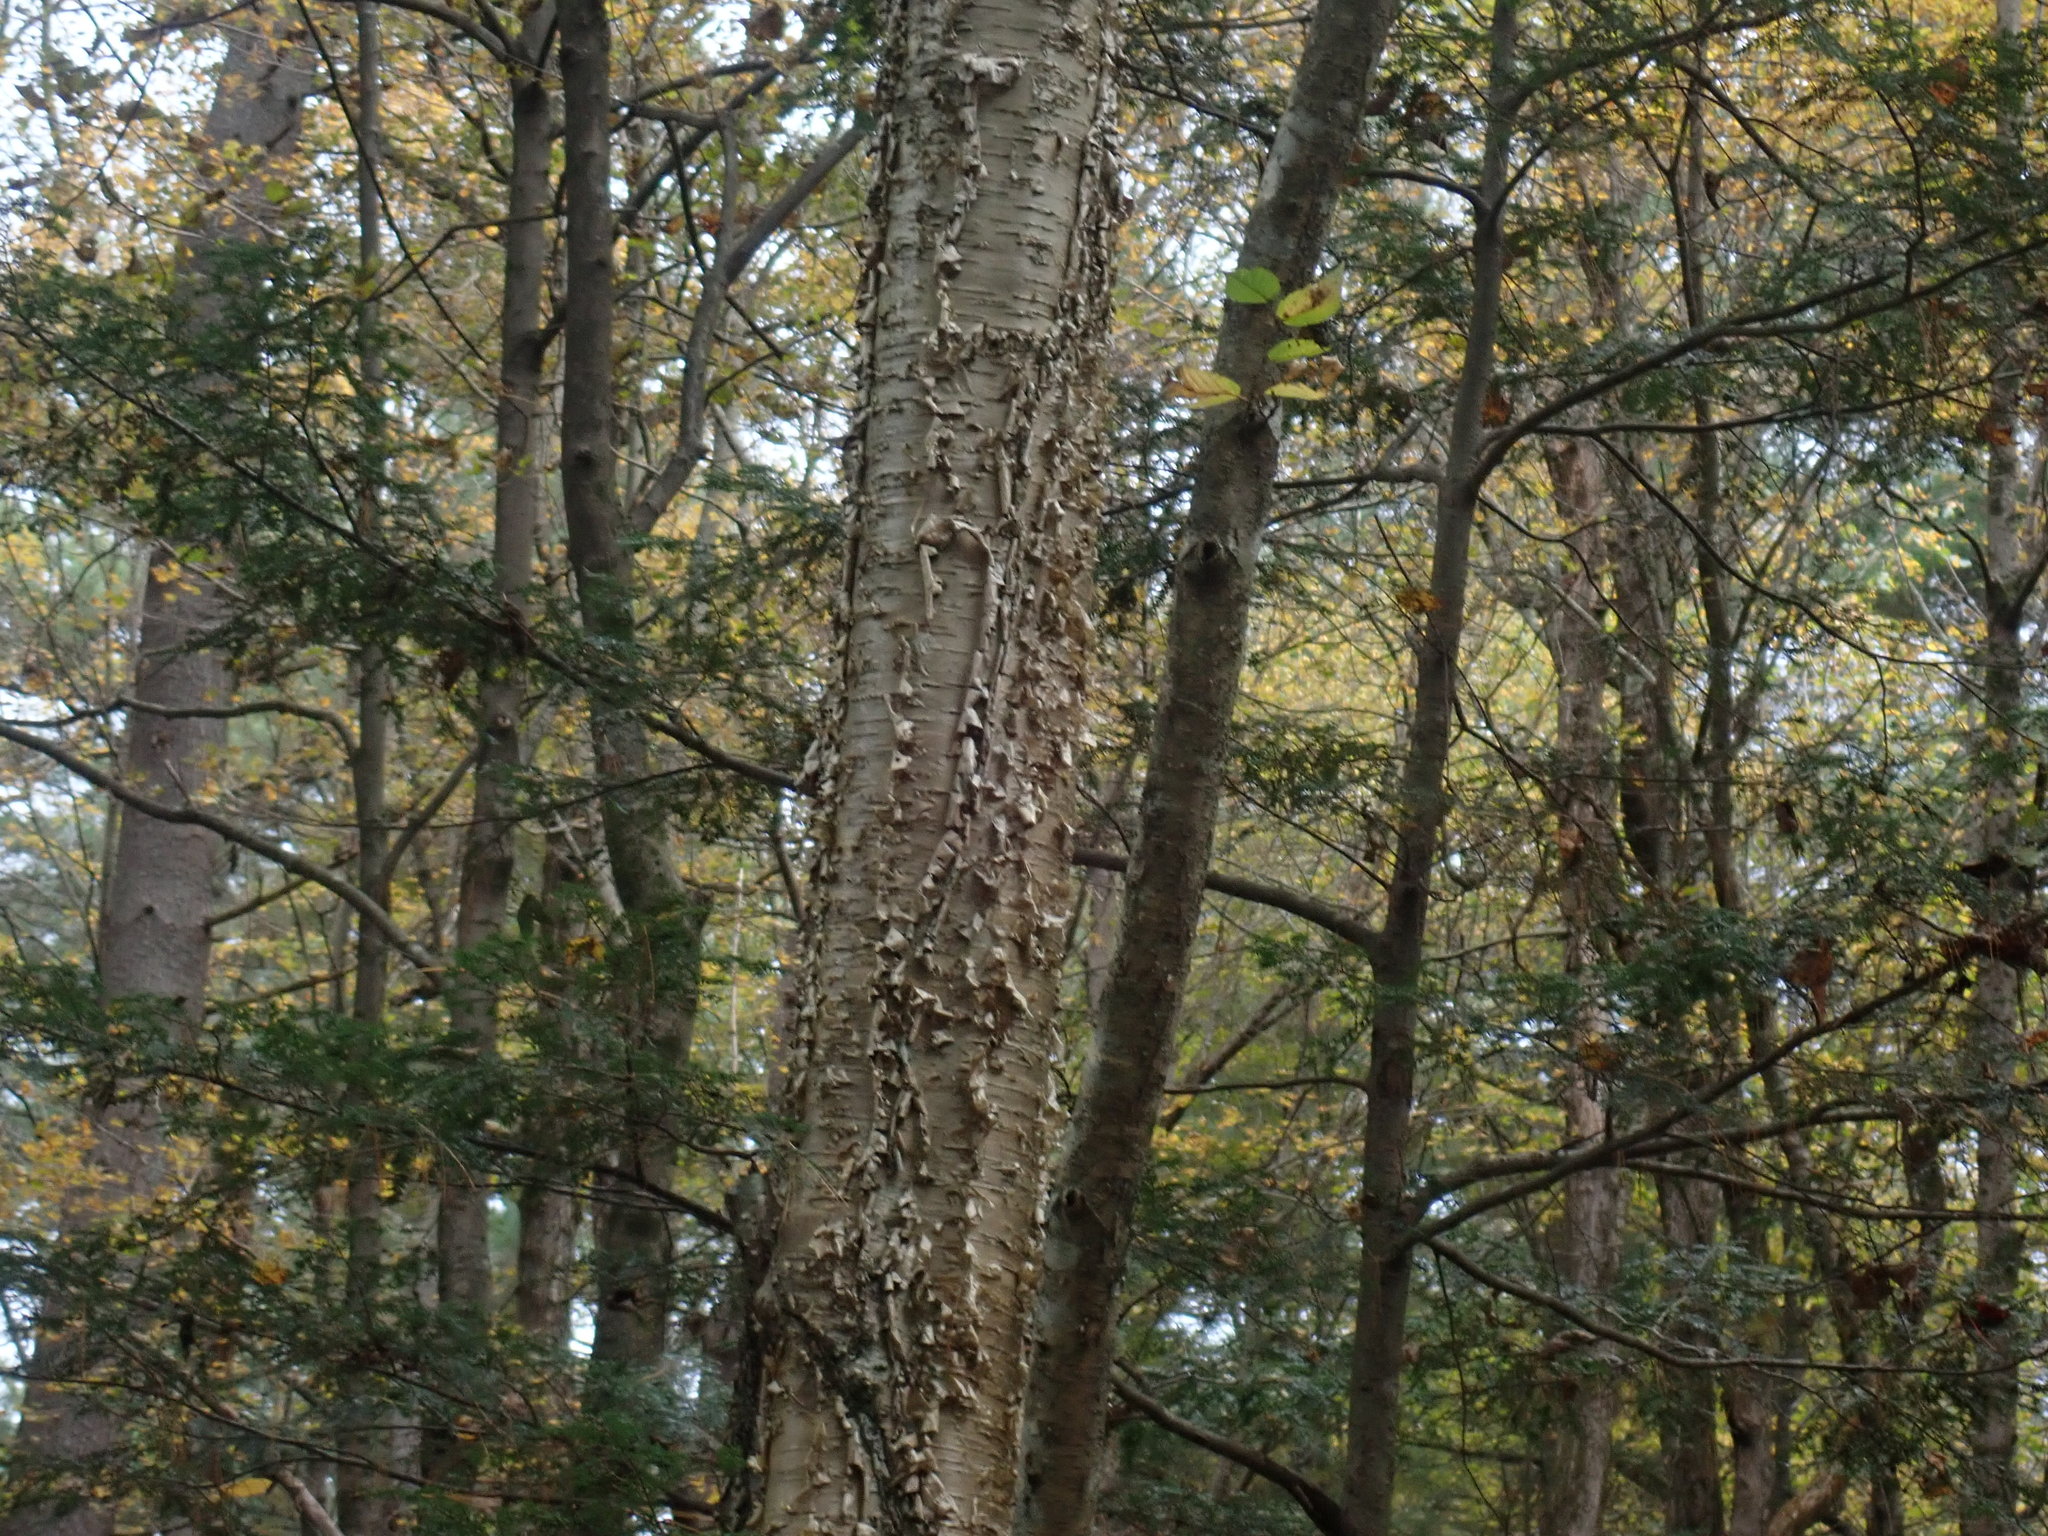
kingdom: Plantae
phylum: Tracheophyta
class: Magnoliopsida
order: Fagales
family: Betulaceae
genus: Betula
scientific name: Betula alleghaniensis
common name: Yellow birch
